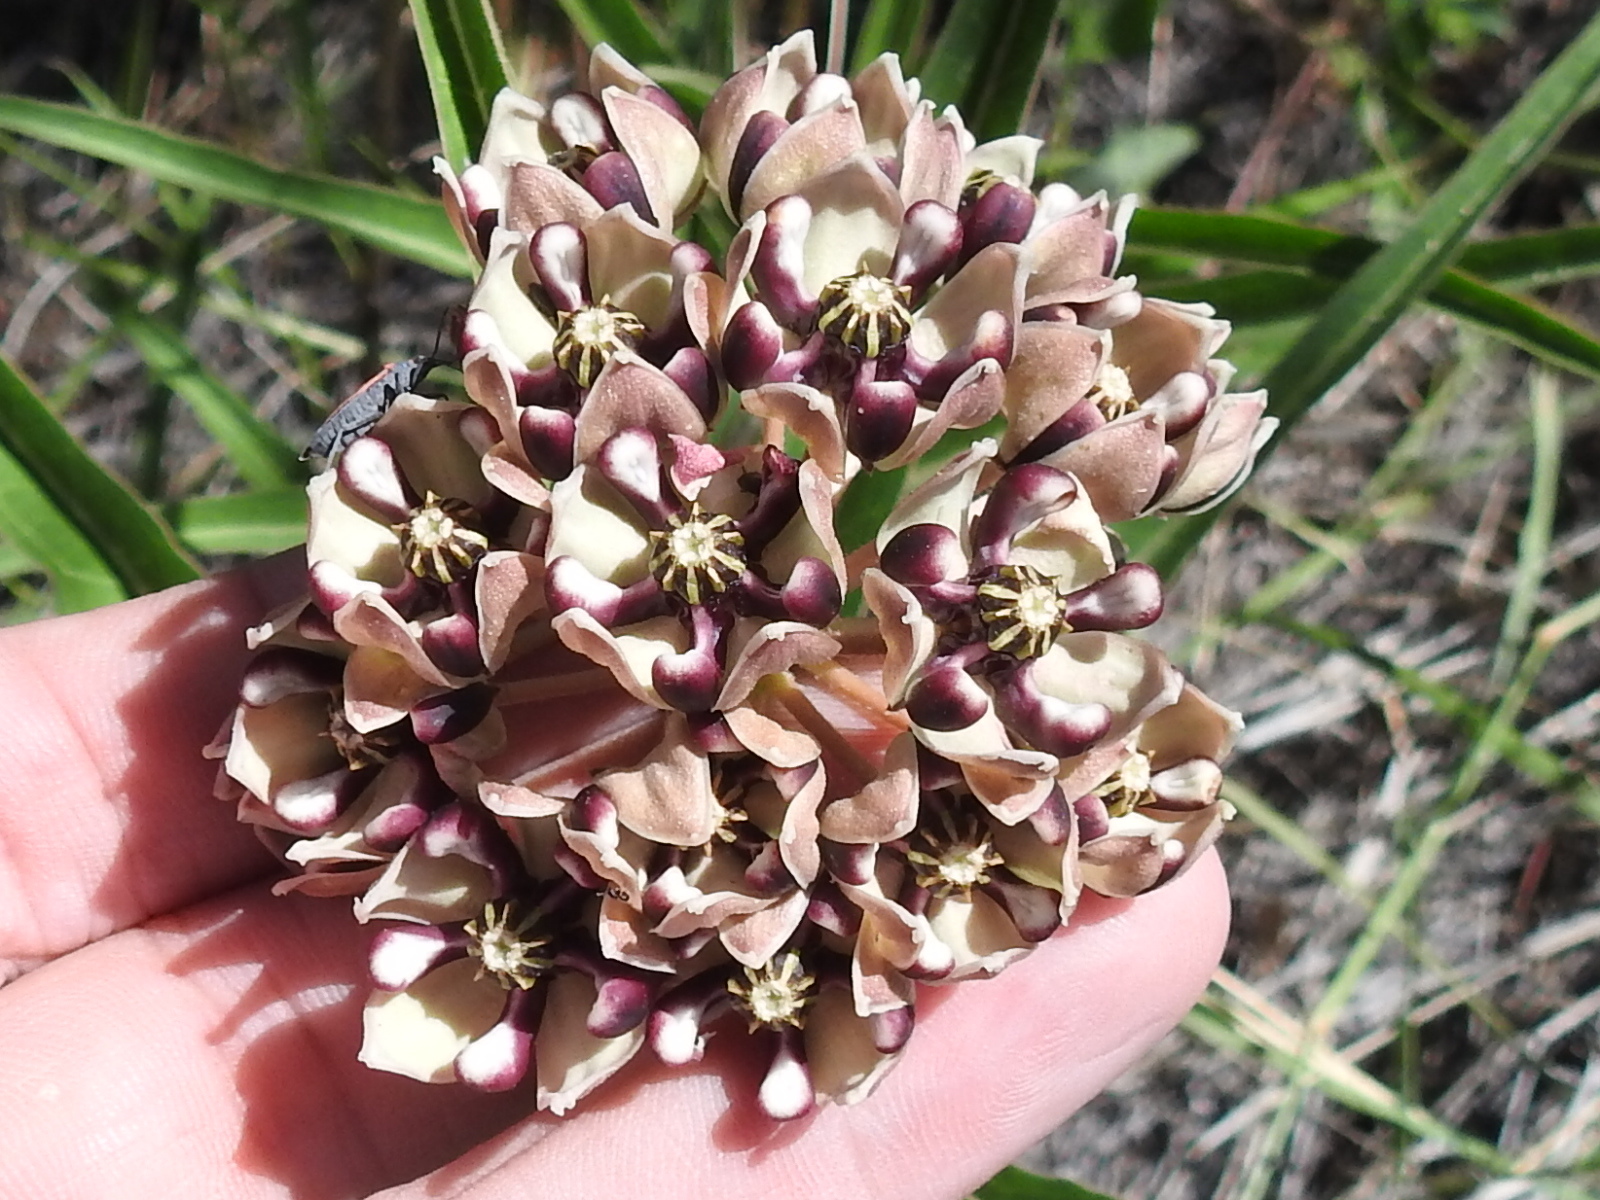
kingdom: Plantae
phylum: Tracheophyta
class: Magnoliopsida
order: Gentianales
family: Apocynaceae
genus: Asclepias
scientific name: Asclepias asperula
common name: Antelope horns
